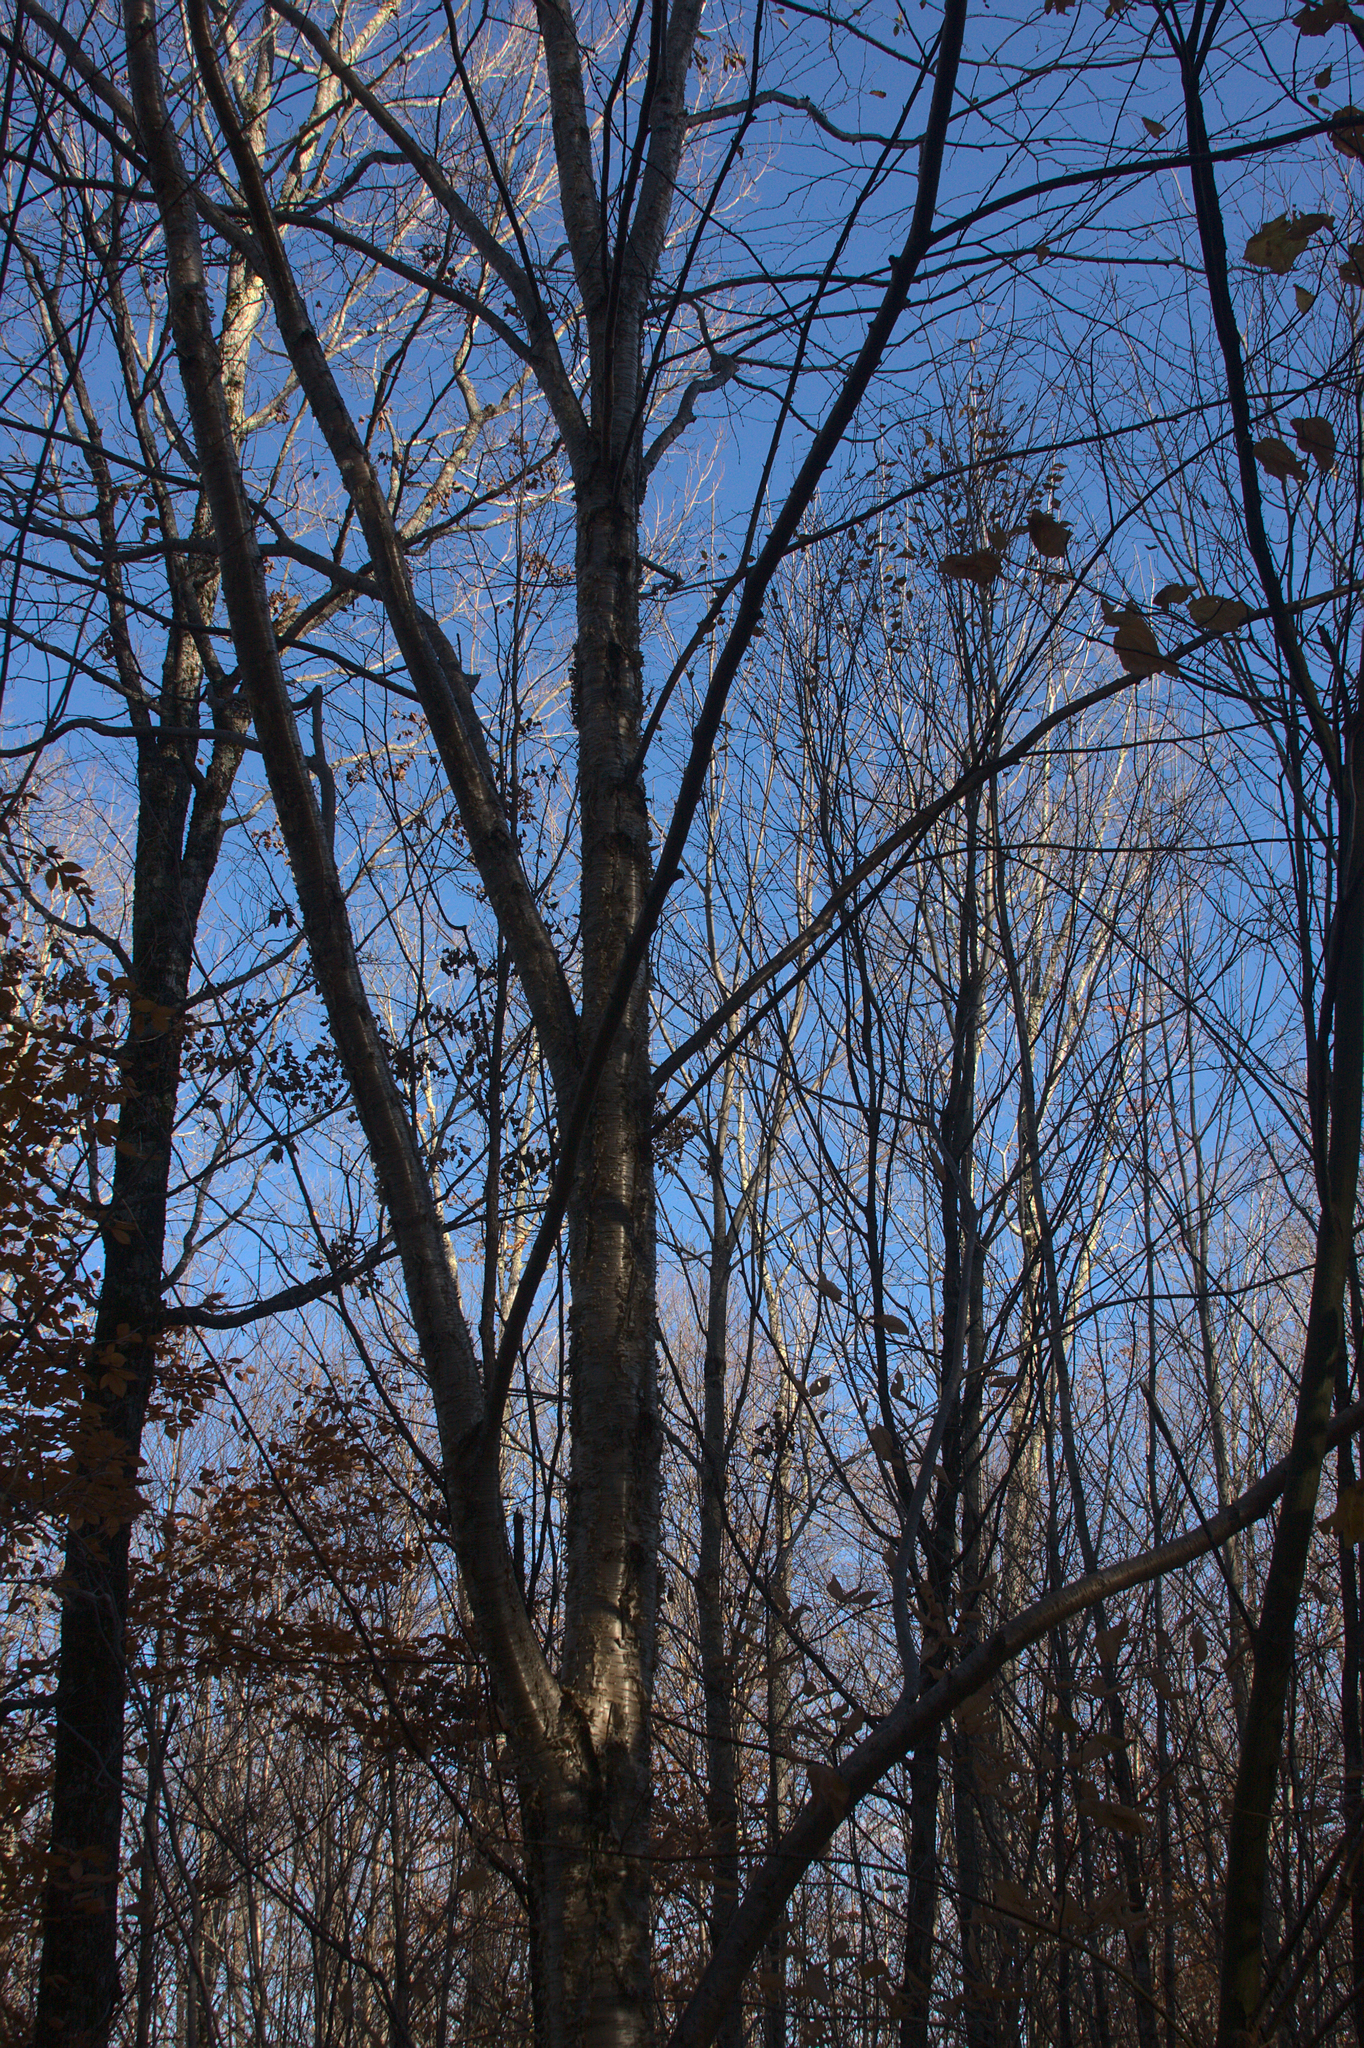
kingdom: Plantae
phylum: Tracheophyta
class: Magnoliopsida
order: Fagales
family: Betulaceae
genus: Betula
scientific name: Betula alleghaniensis
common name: Yellow birch
